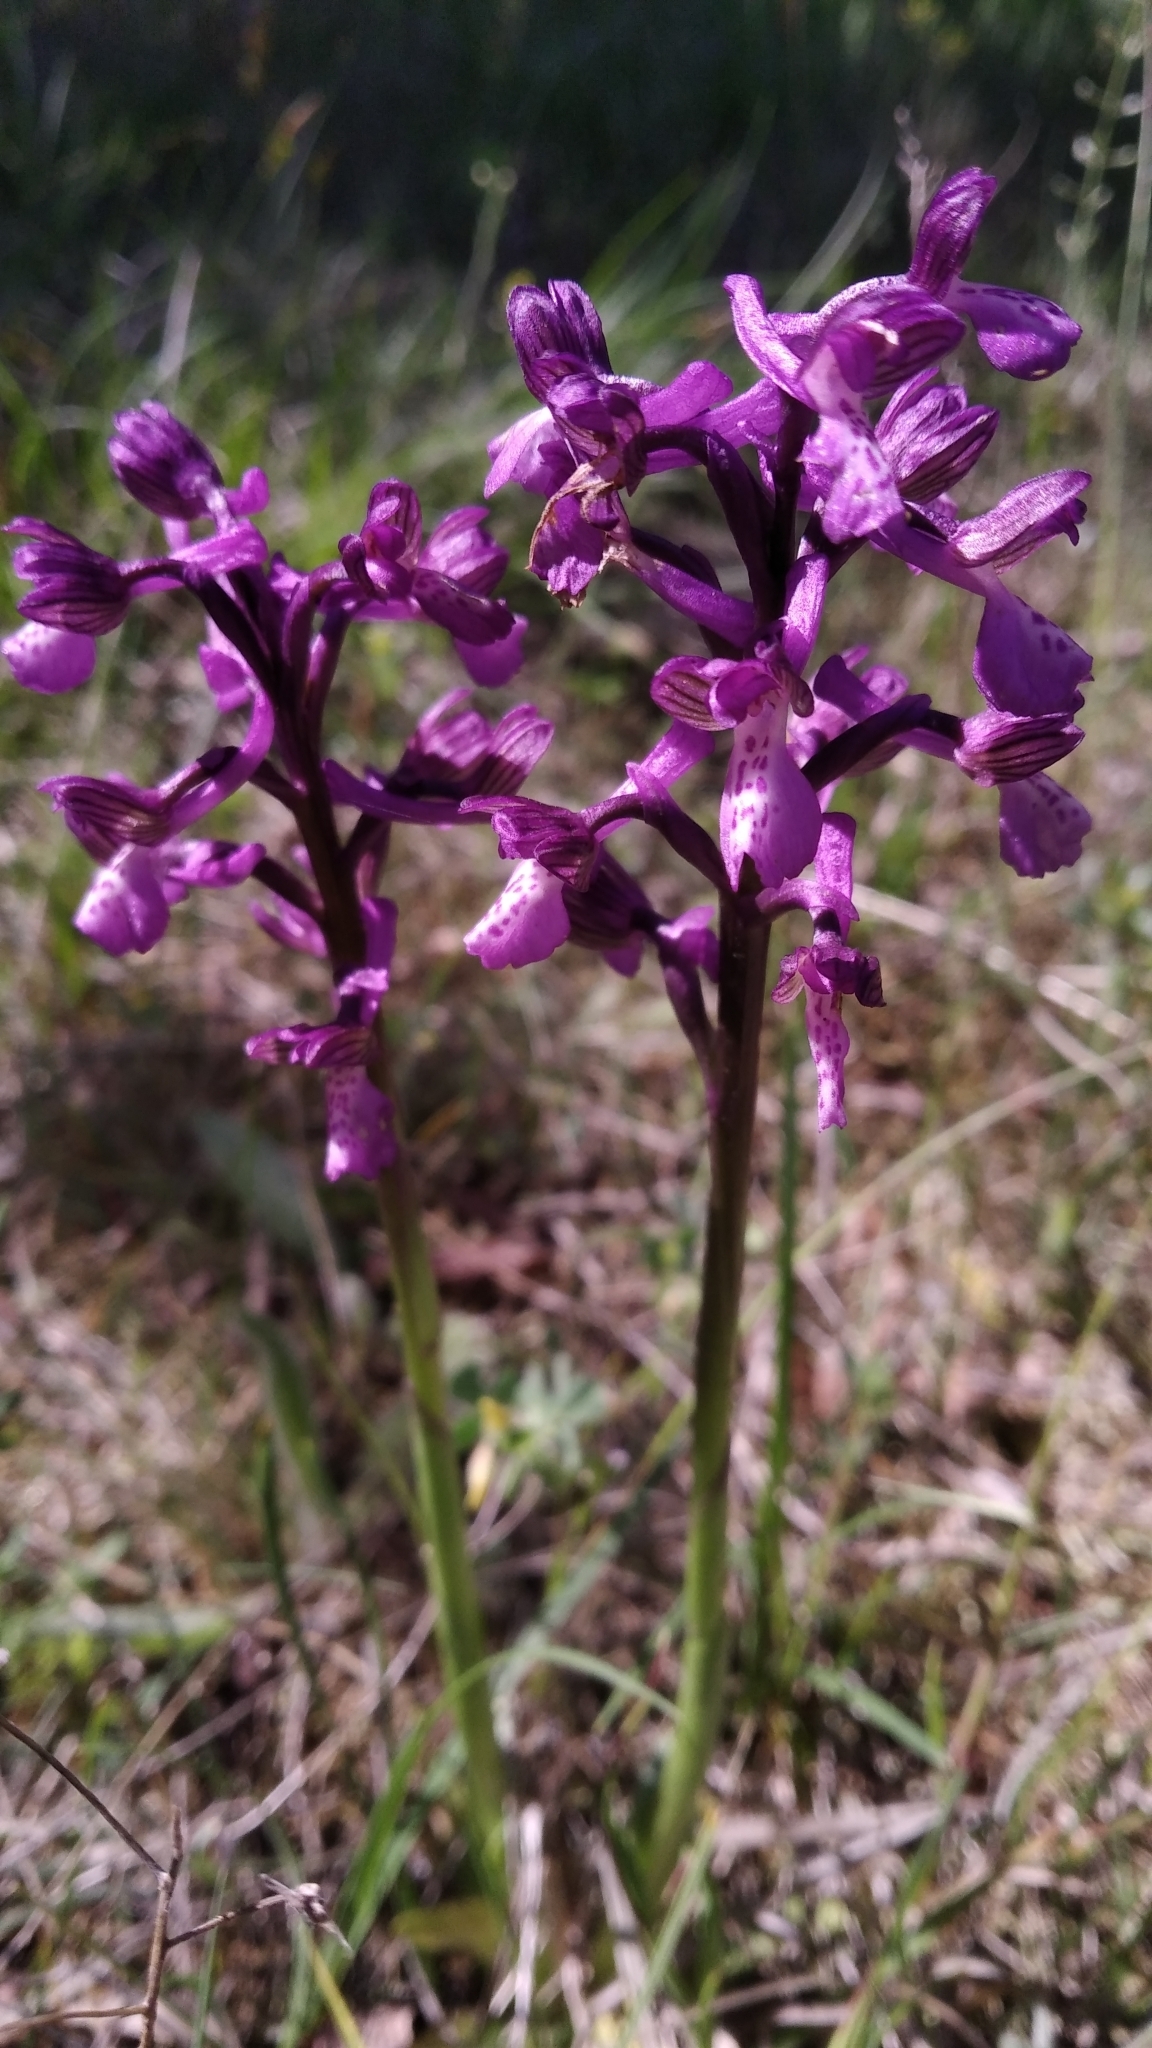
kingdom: Plantae
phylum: Tracheophyta
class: Liliopsida
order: Asparagales
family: Orchidaceae
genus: Anacamptis
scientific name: Anacamptis morio
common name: Green-winged orchid
